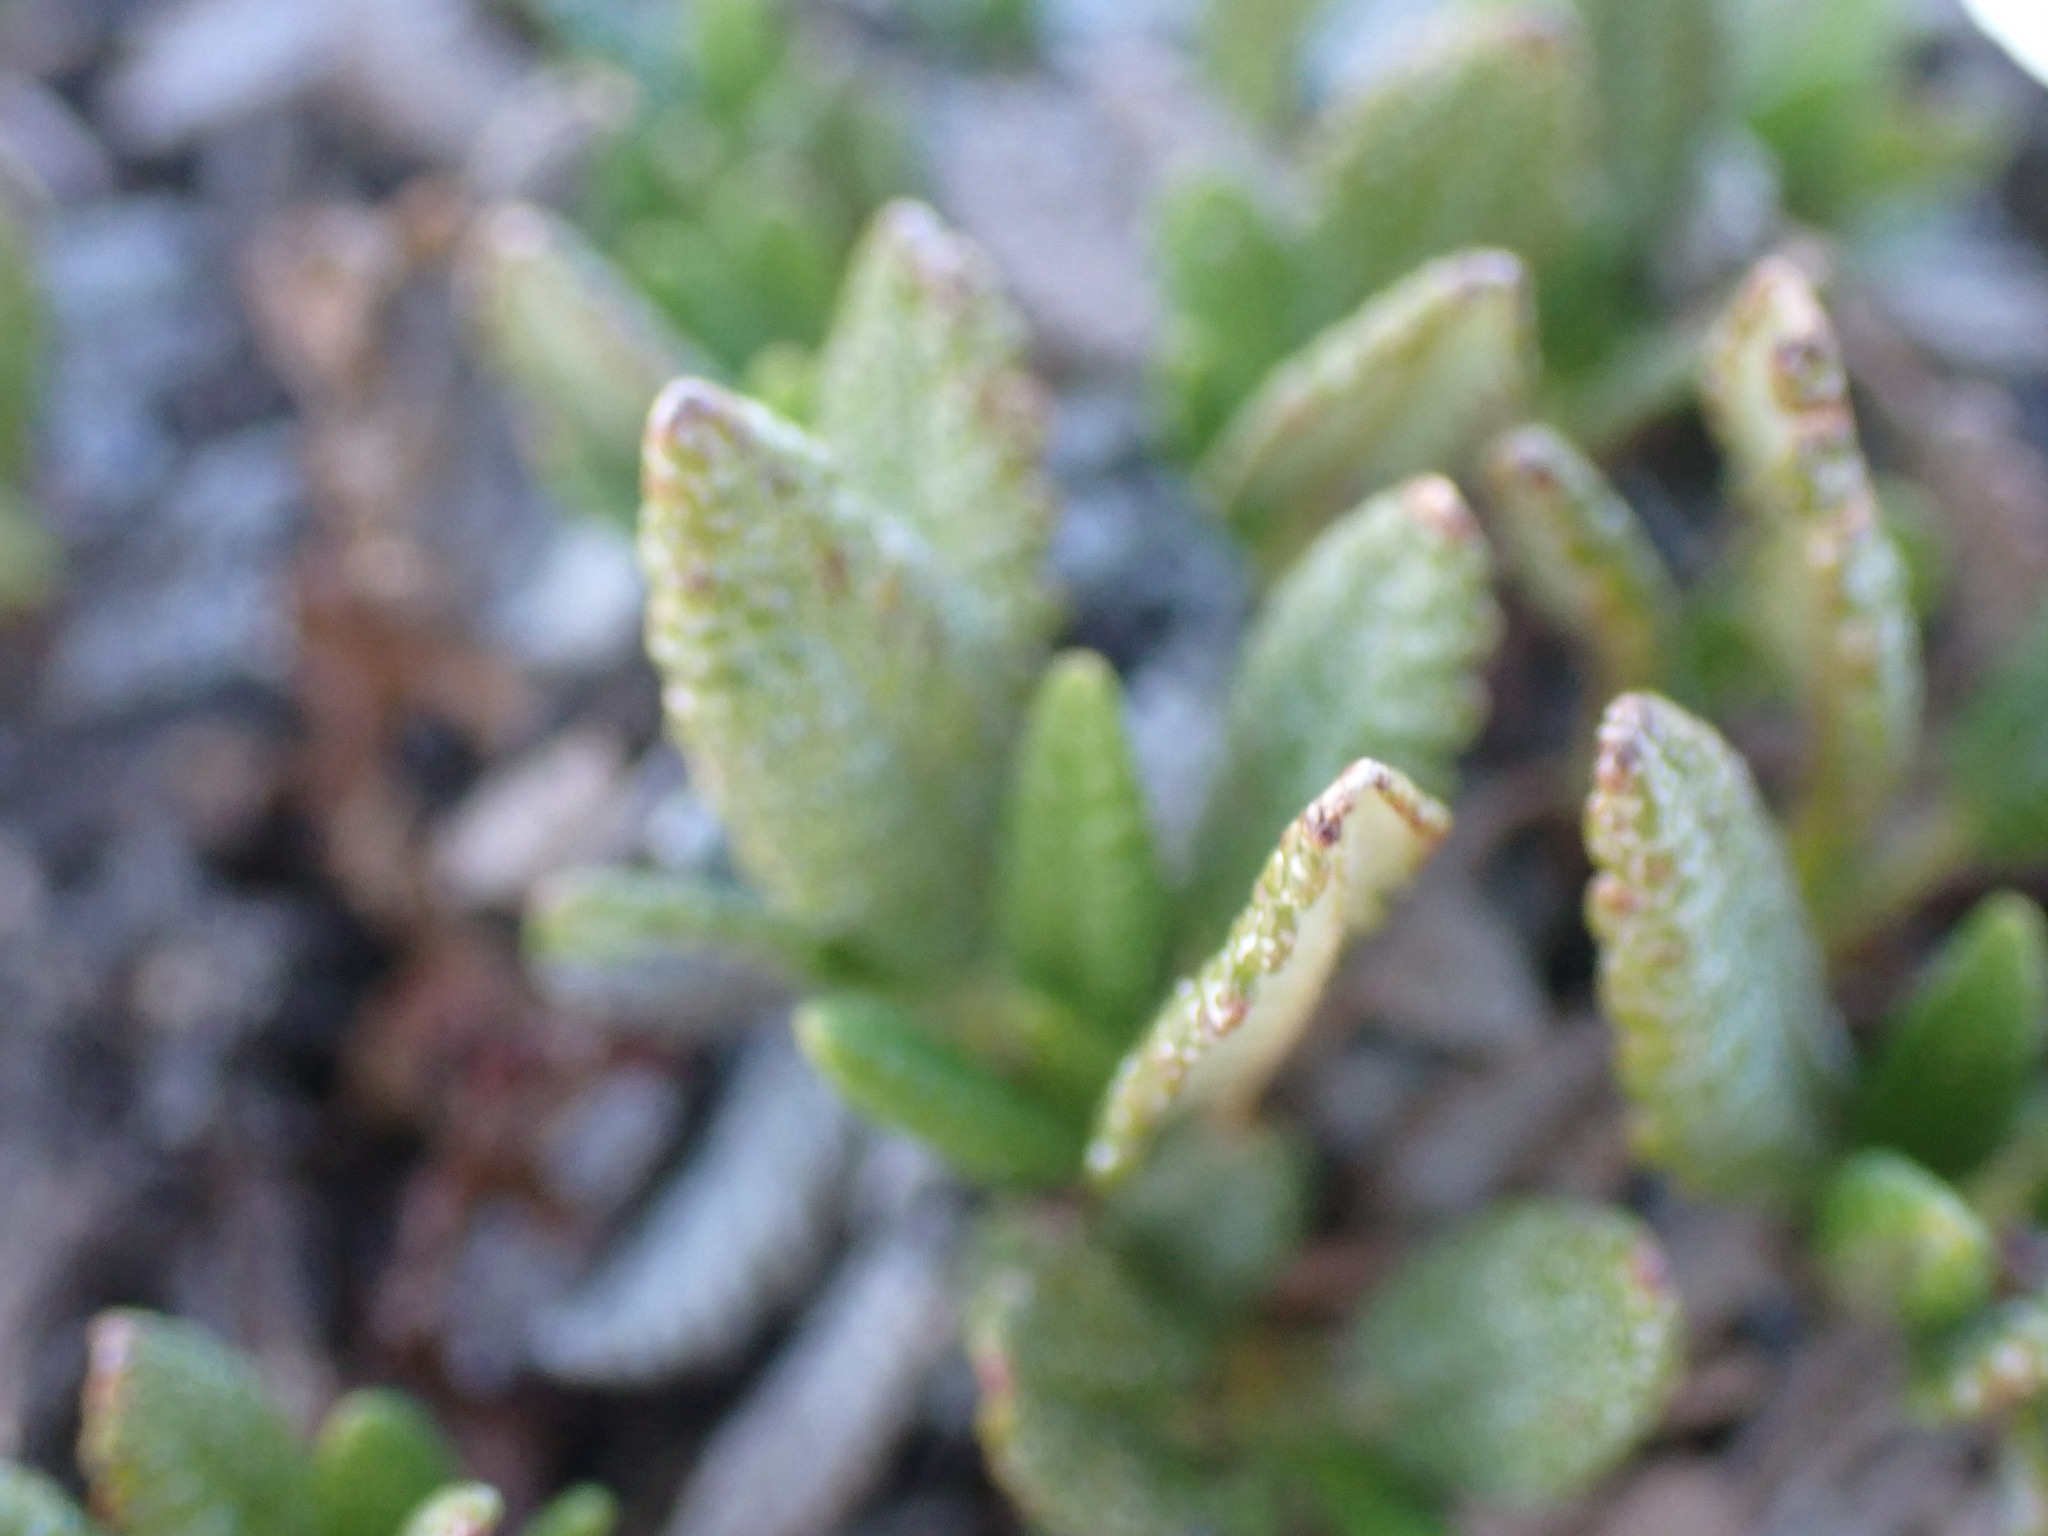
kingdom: Plantae
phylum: Tracheophyta
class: Magnoliopsida
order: Rosales
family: Rosaceae
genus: Dryas
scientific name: Dryas octopetala
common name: Eight-petal mountain-avens
